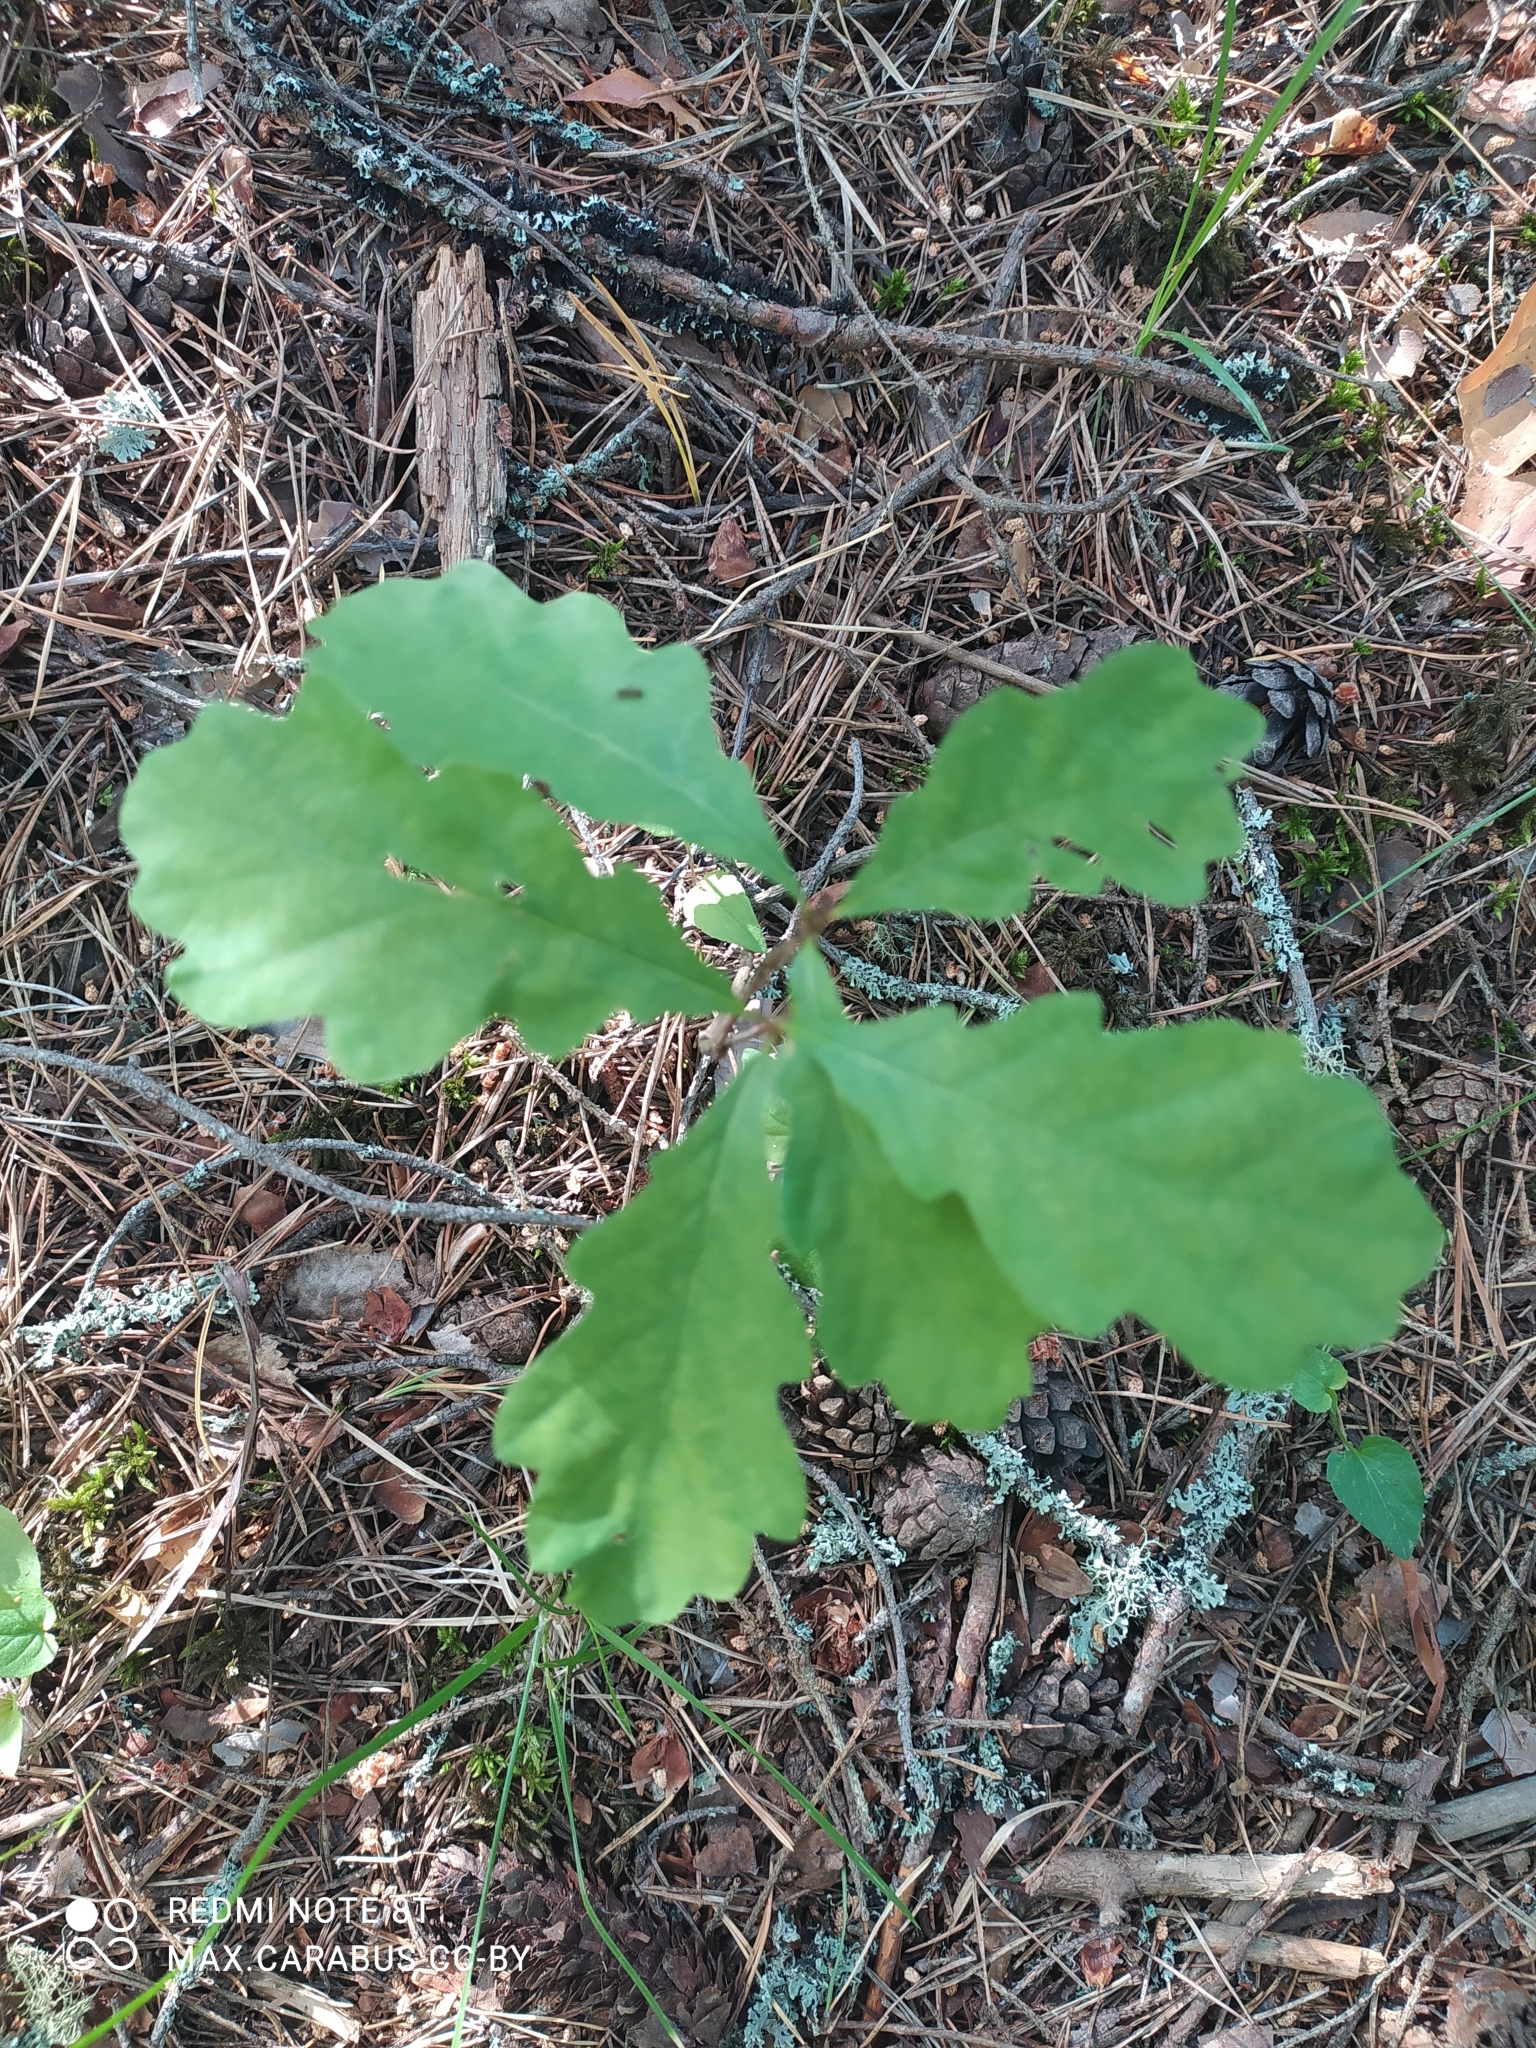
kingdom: Plantae
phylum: Tracheophyta
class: Magnoliopsida
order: Fagales
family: Fagaceae
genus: Quercus
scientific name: Quercus robur
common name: Pedunculate oak
